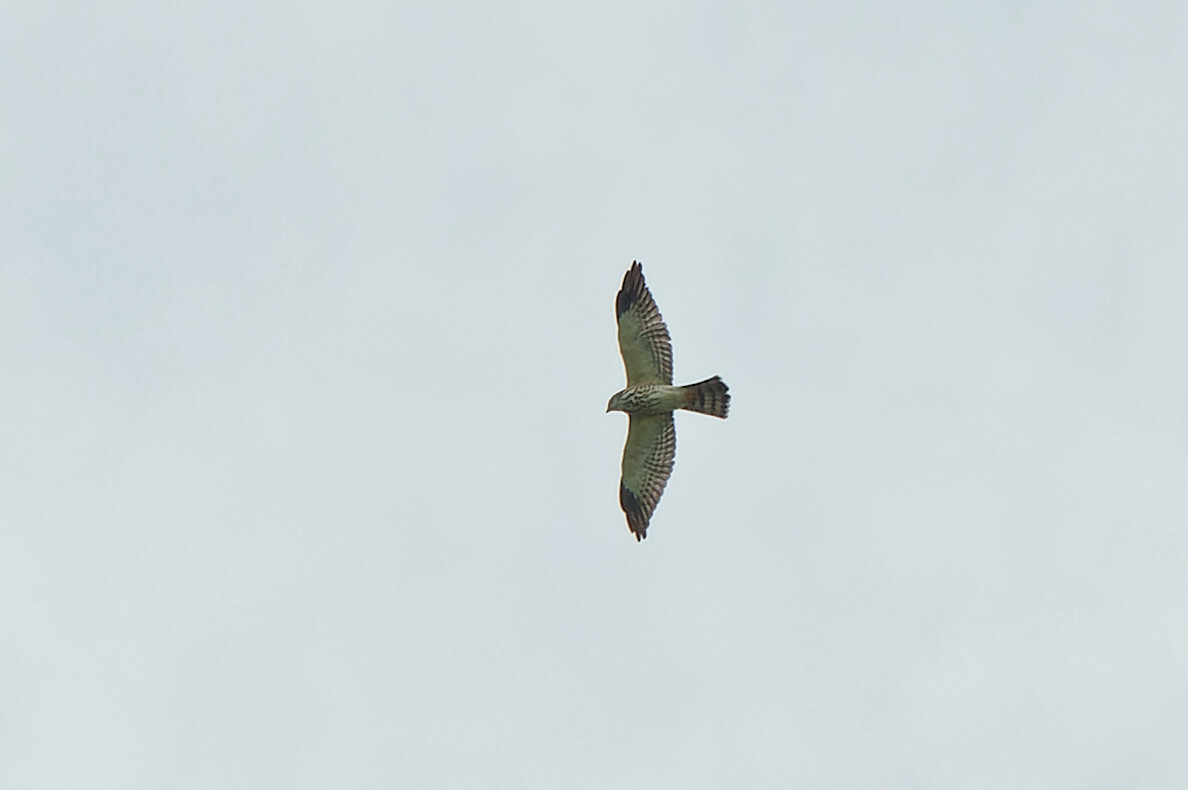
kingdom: Animalia
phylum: Chordata
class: Aves
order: Accipitriformes
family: Accipitridae
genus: Accipiter
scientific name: Accipiter soloensis
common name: Chinese sparrowhawk
